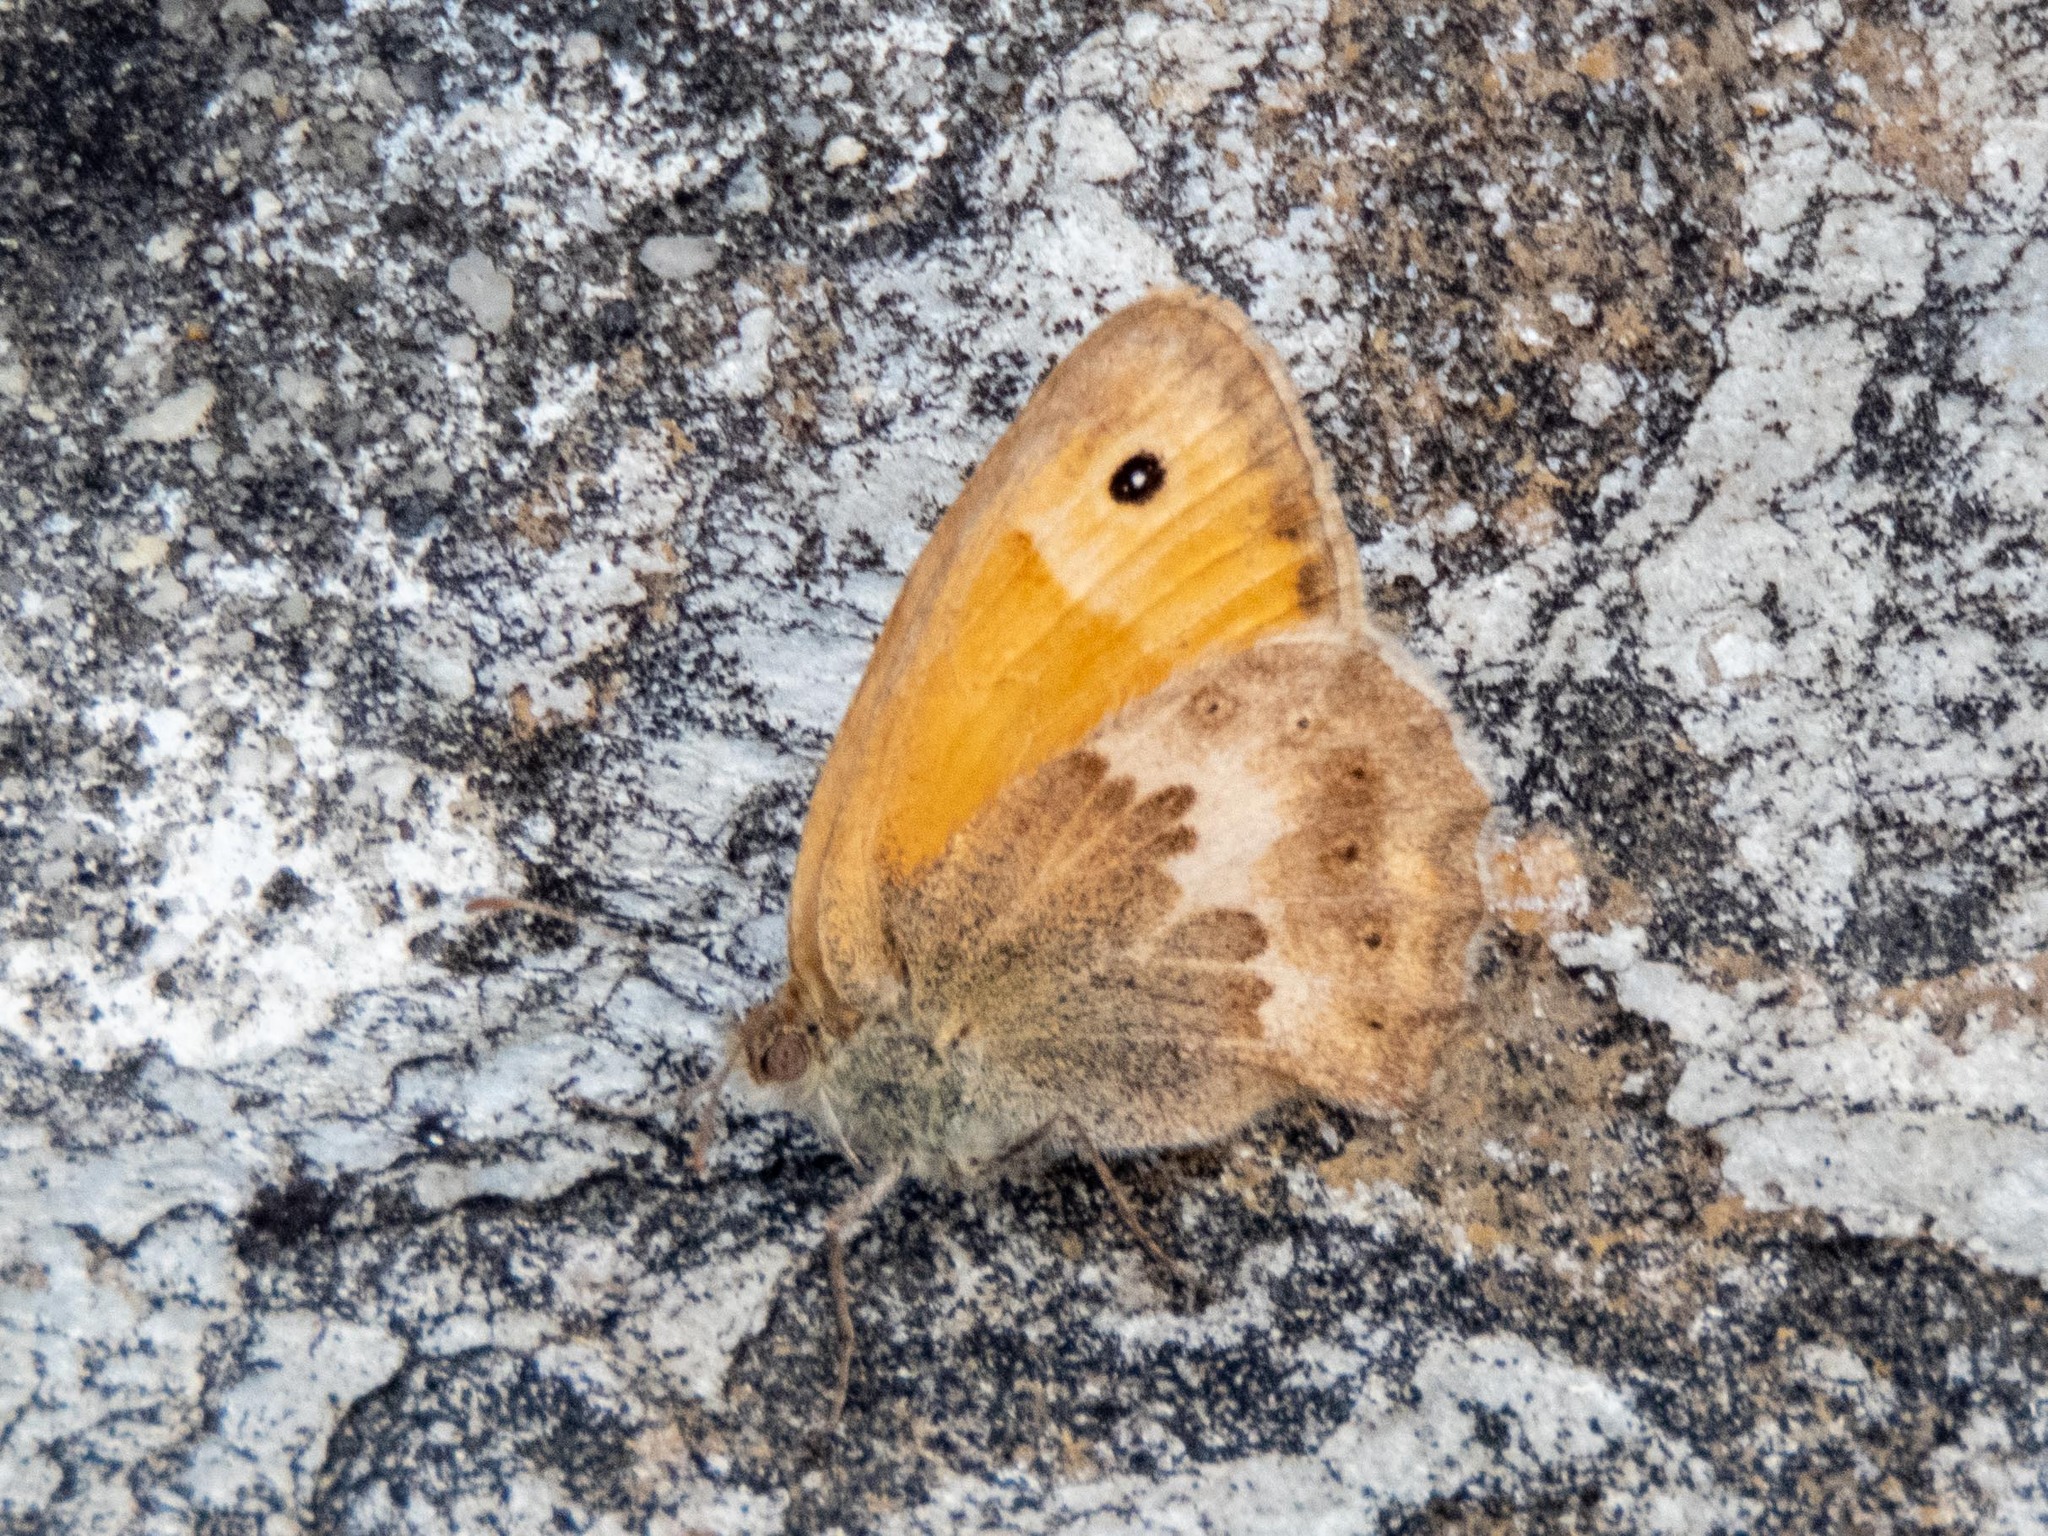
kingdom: Animalia
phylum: Arthropoda
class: Insecta
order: Lepidoptera
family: Nymphalidae
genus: Coenonympha
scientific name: Coenonympha pamphilus
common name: Small heath
